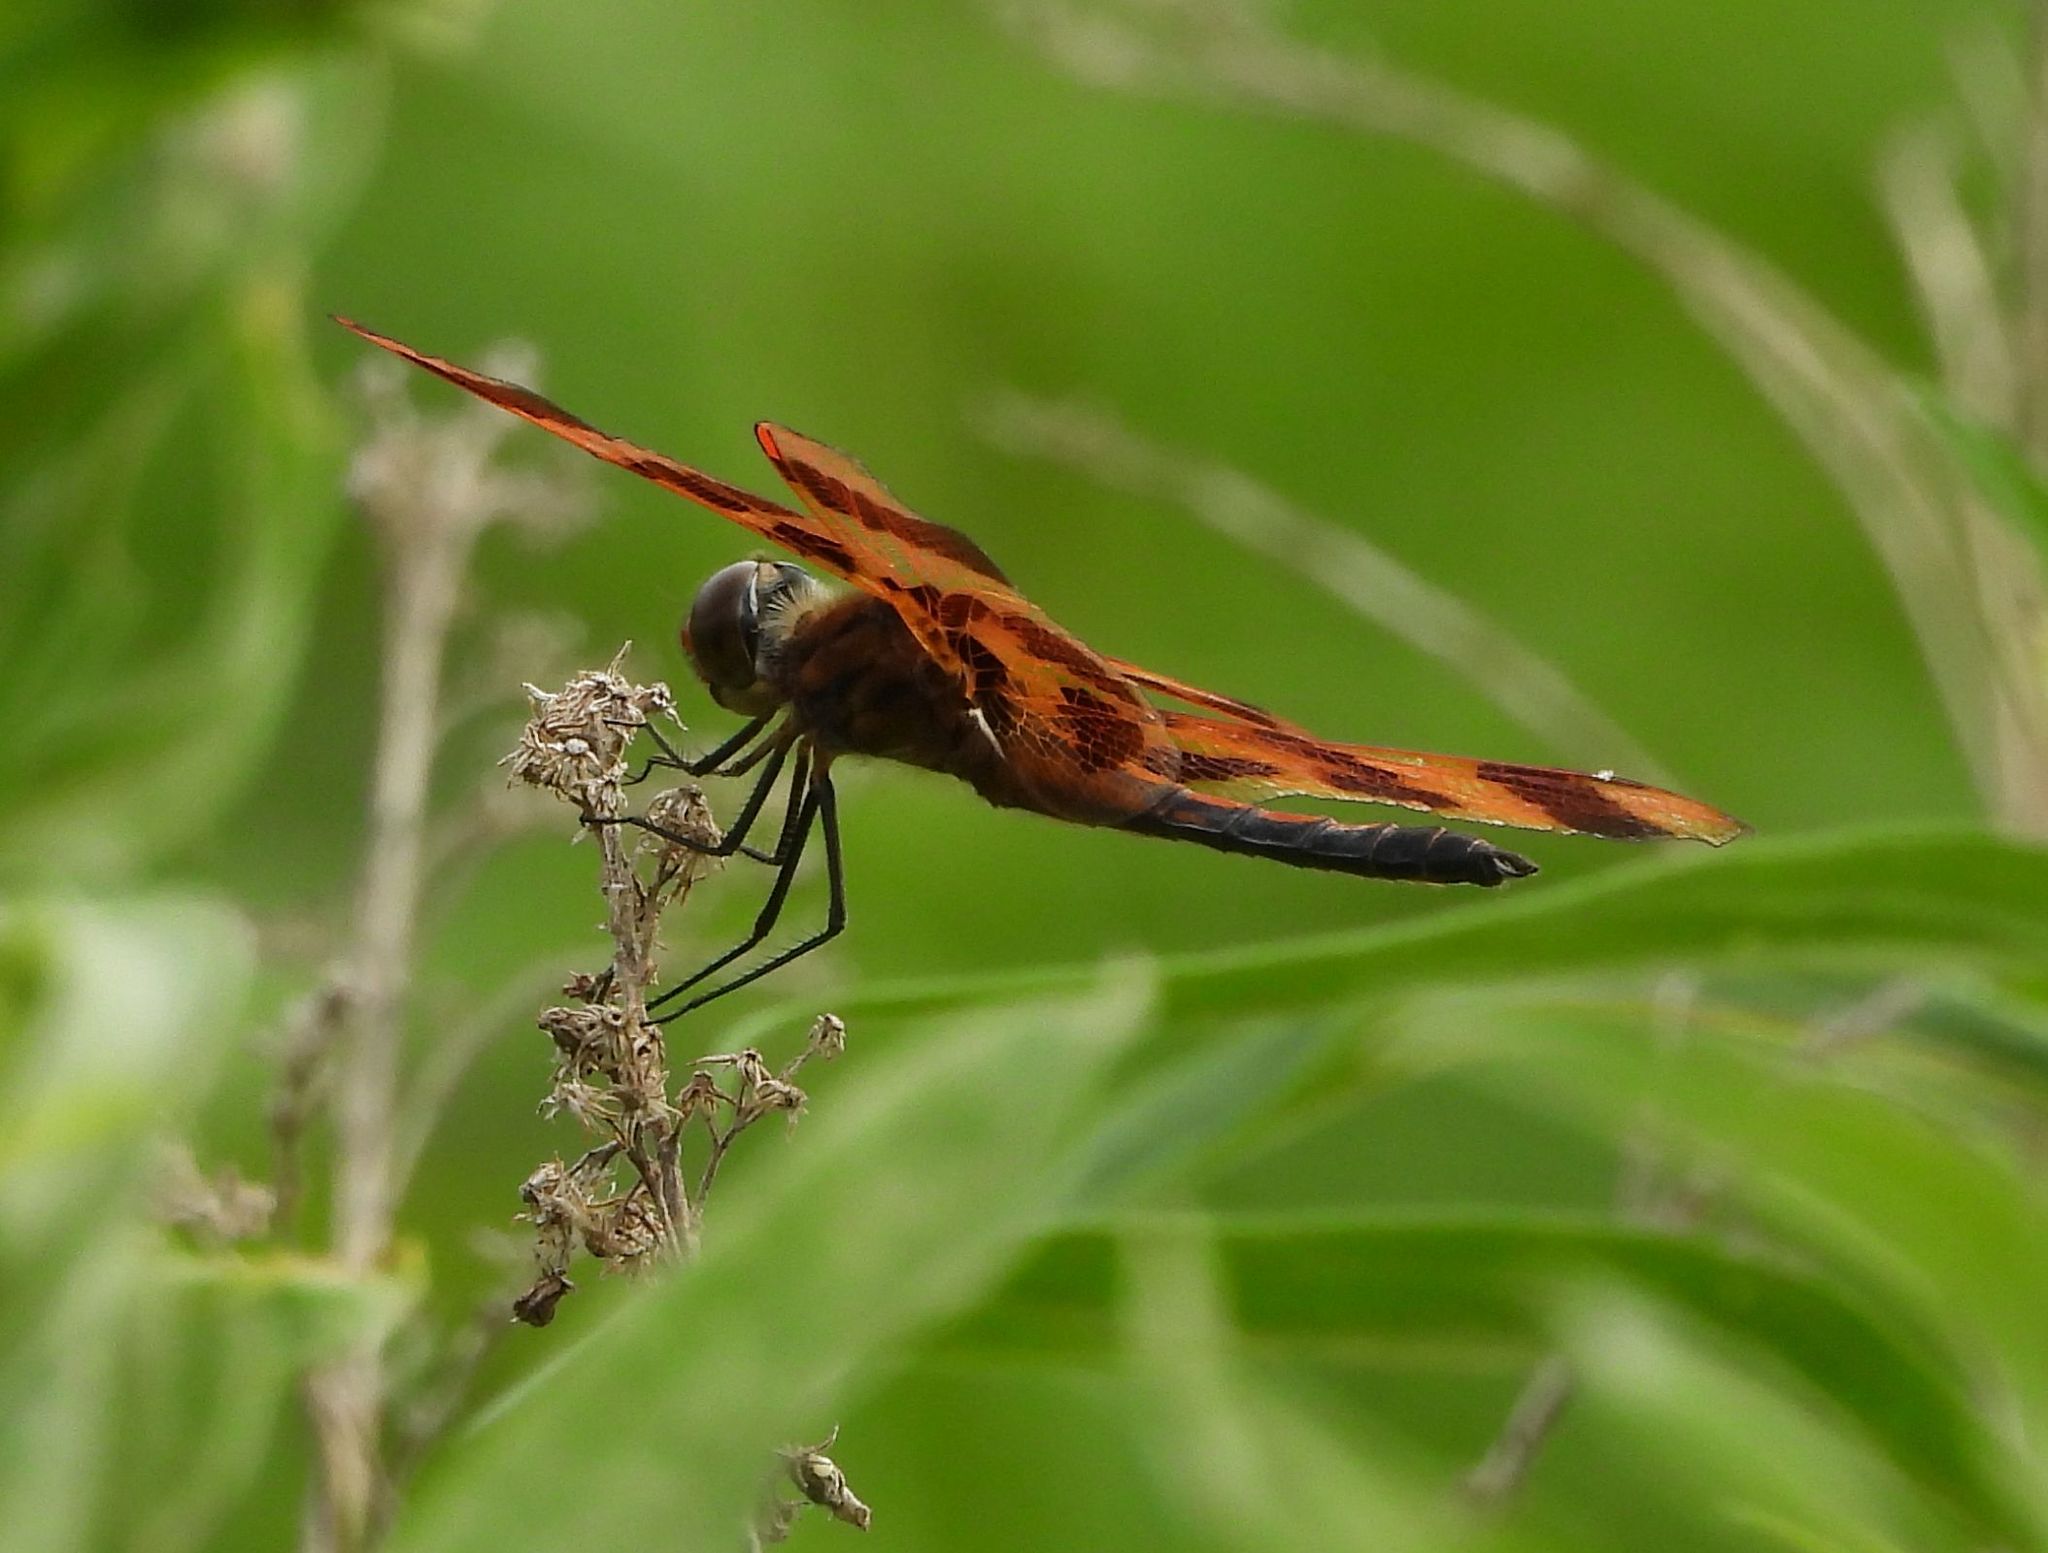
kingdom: Animalia
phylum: Arthropoda
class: Insecta
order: Odonata
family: Libellulidae
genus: Celithemis
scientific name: Celithemis eponina
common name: Halloween pennant
